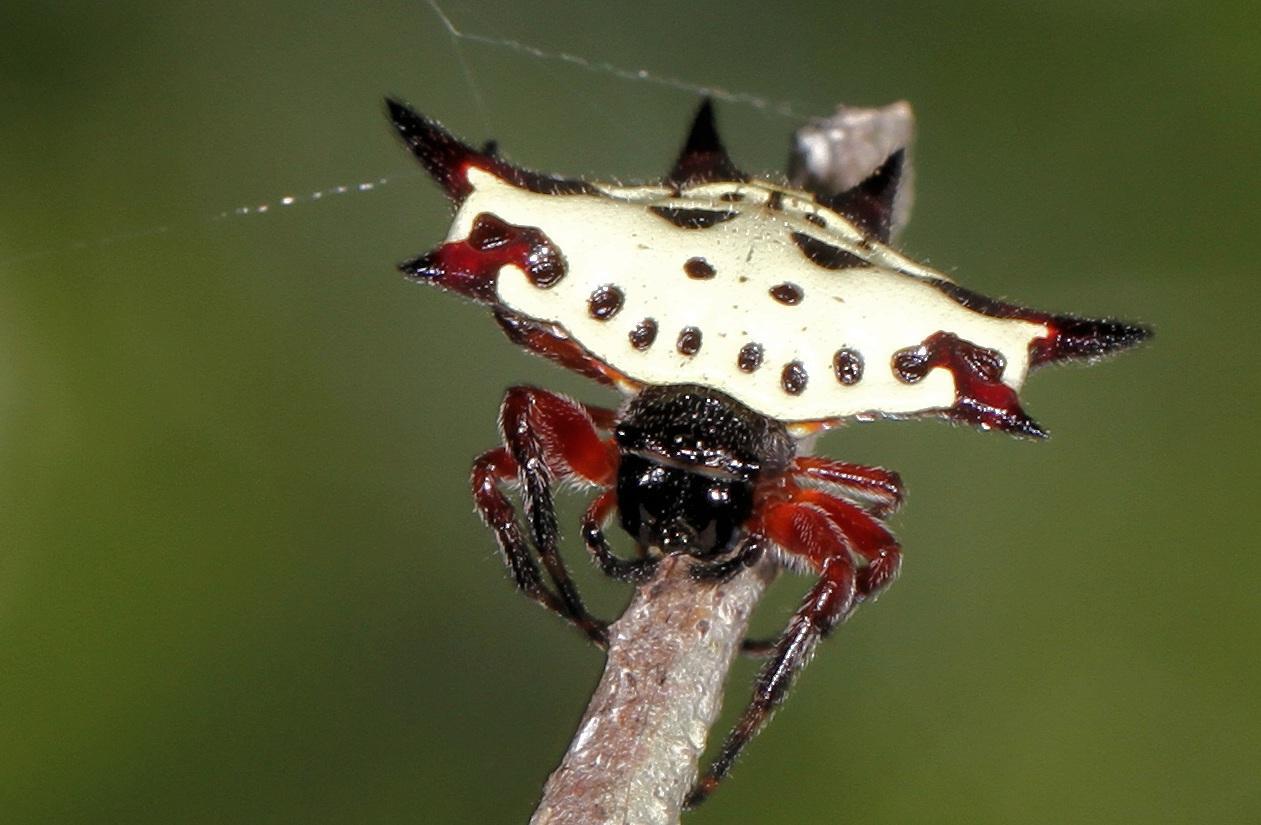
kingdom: Animalia
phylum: Arthropoda
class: Arachnida
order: Araneae
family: Araneidae
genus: Gasteracantha
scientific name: Gasteracantha sanguinolenta
